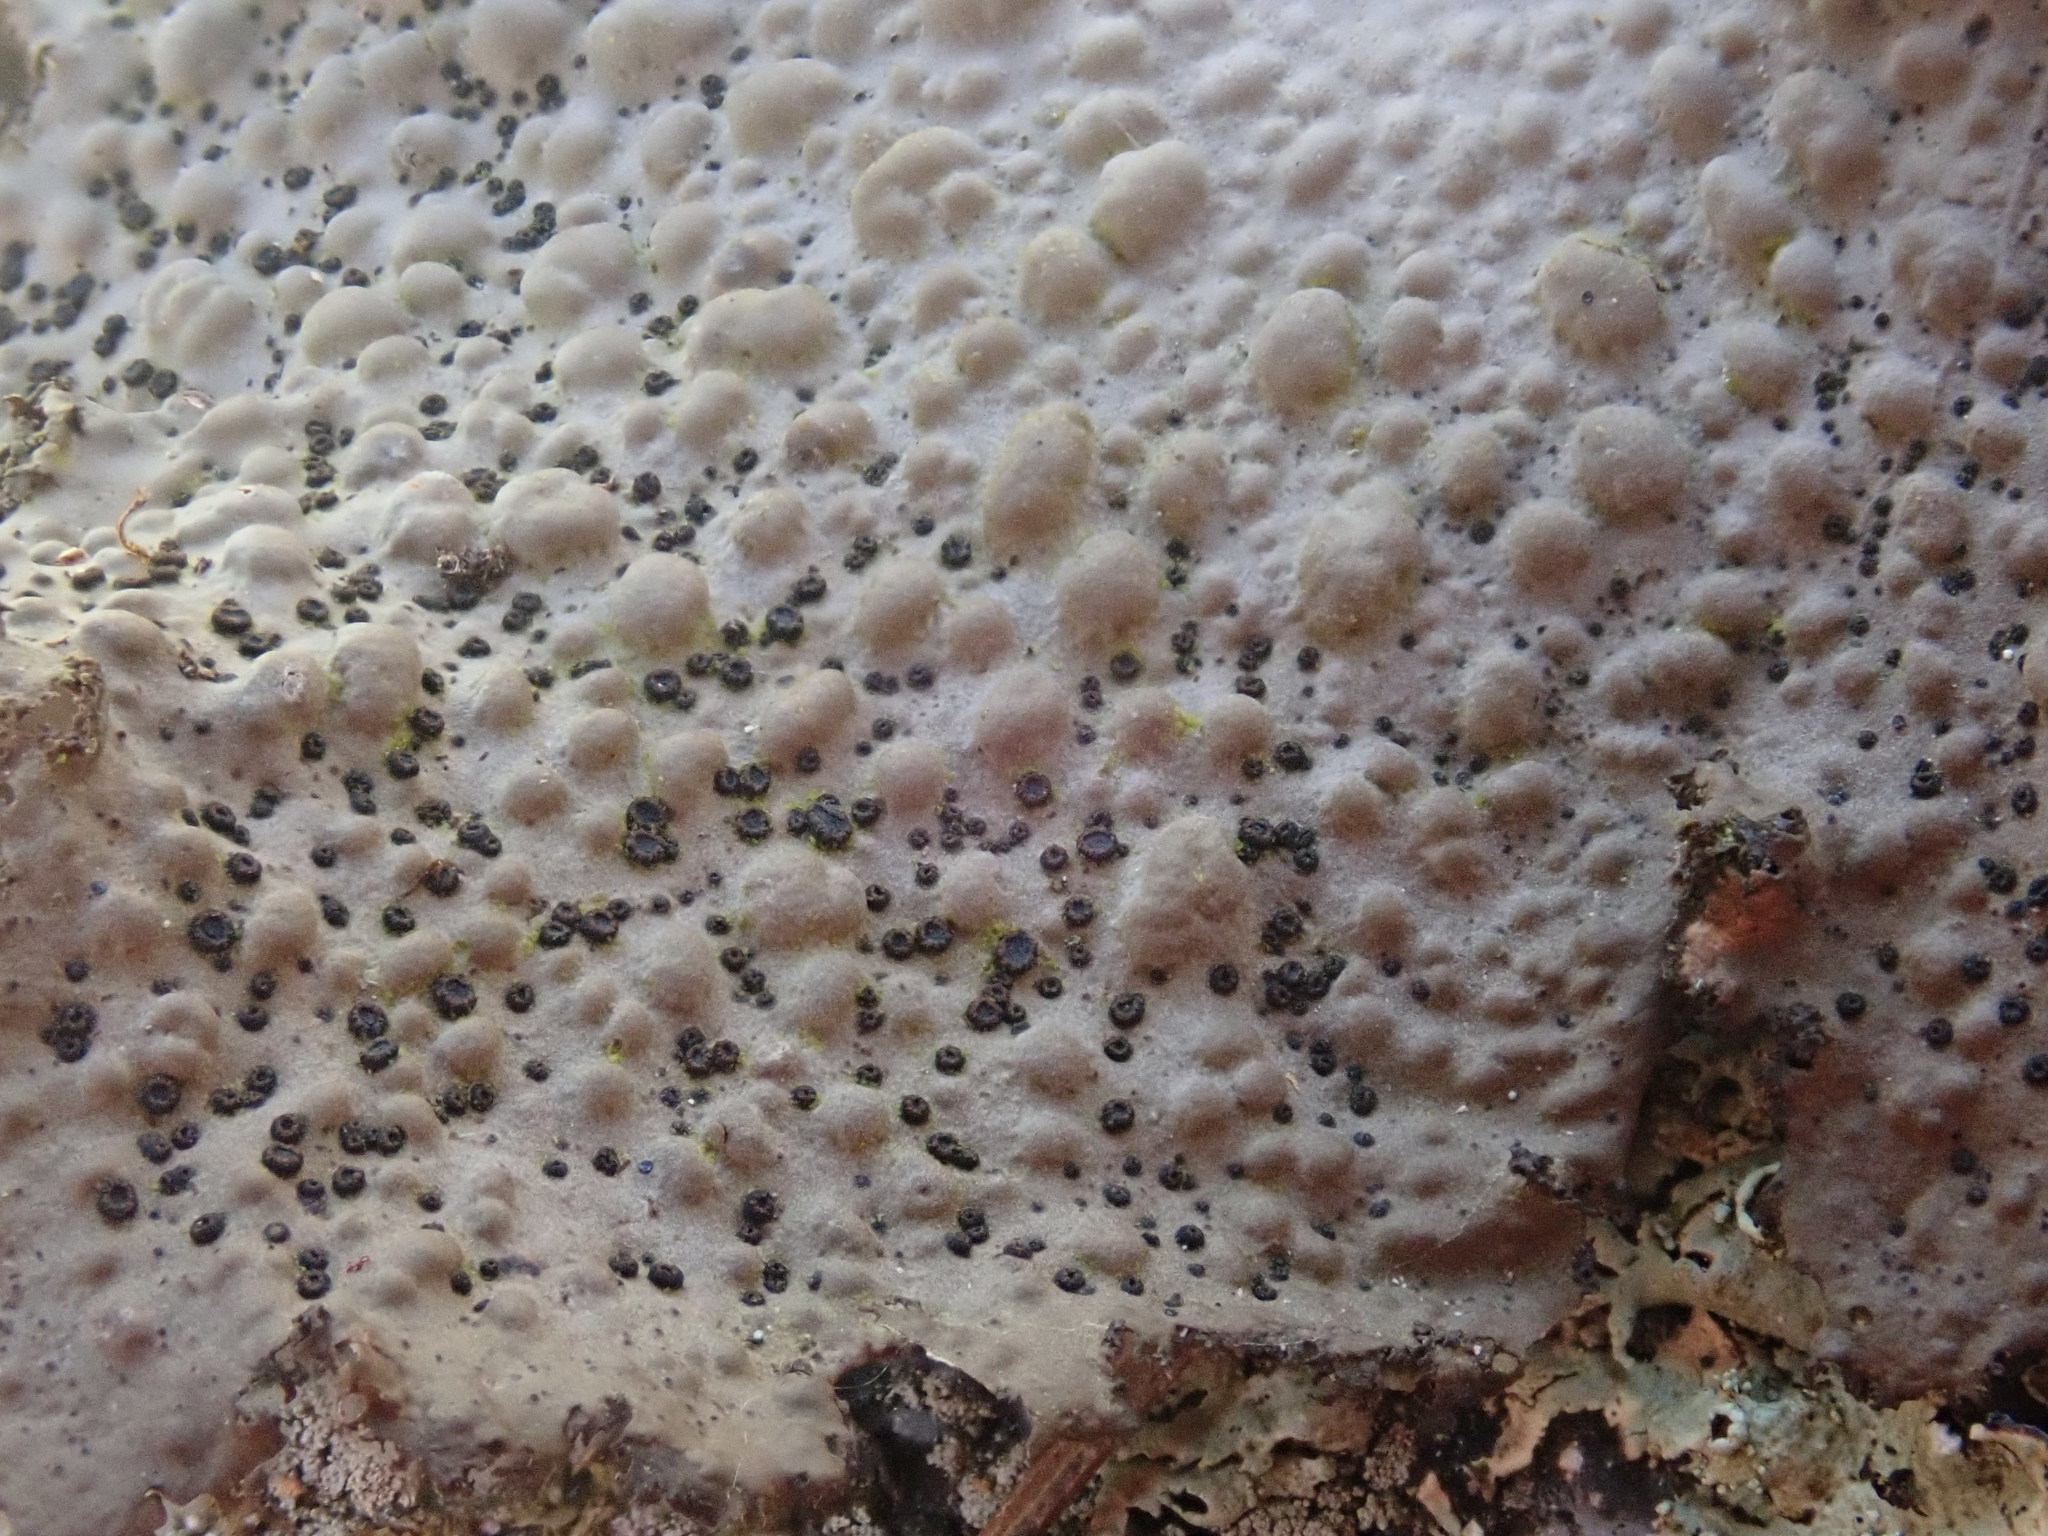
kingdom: Fungi
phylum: Ascomycota
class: Lecanoromycetes
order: Umbilicariales
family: Umbilicariaceae
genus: Lasallia
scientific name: Lasallia papulosa
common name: Common toadskin lichen
